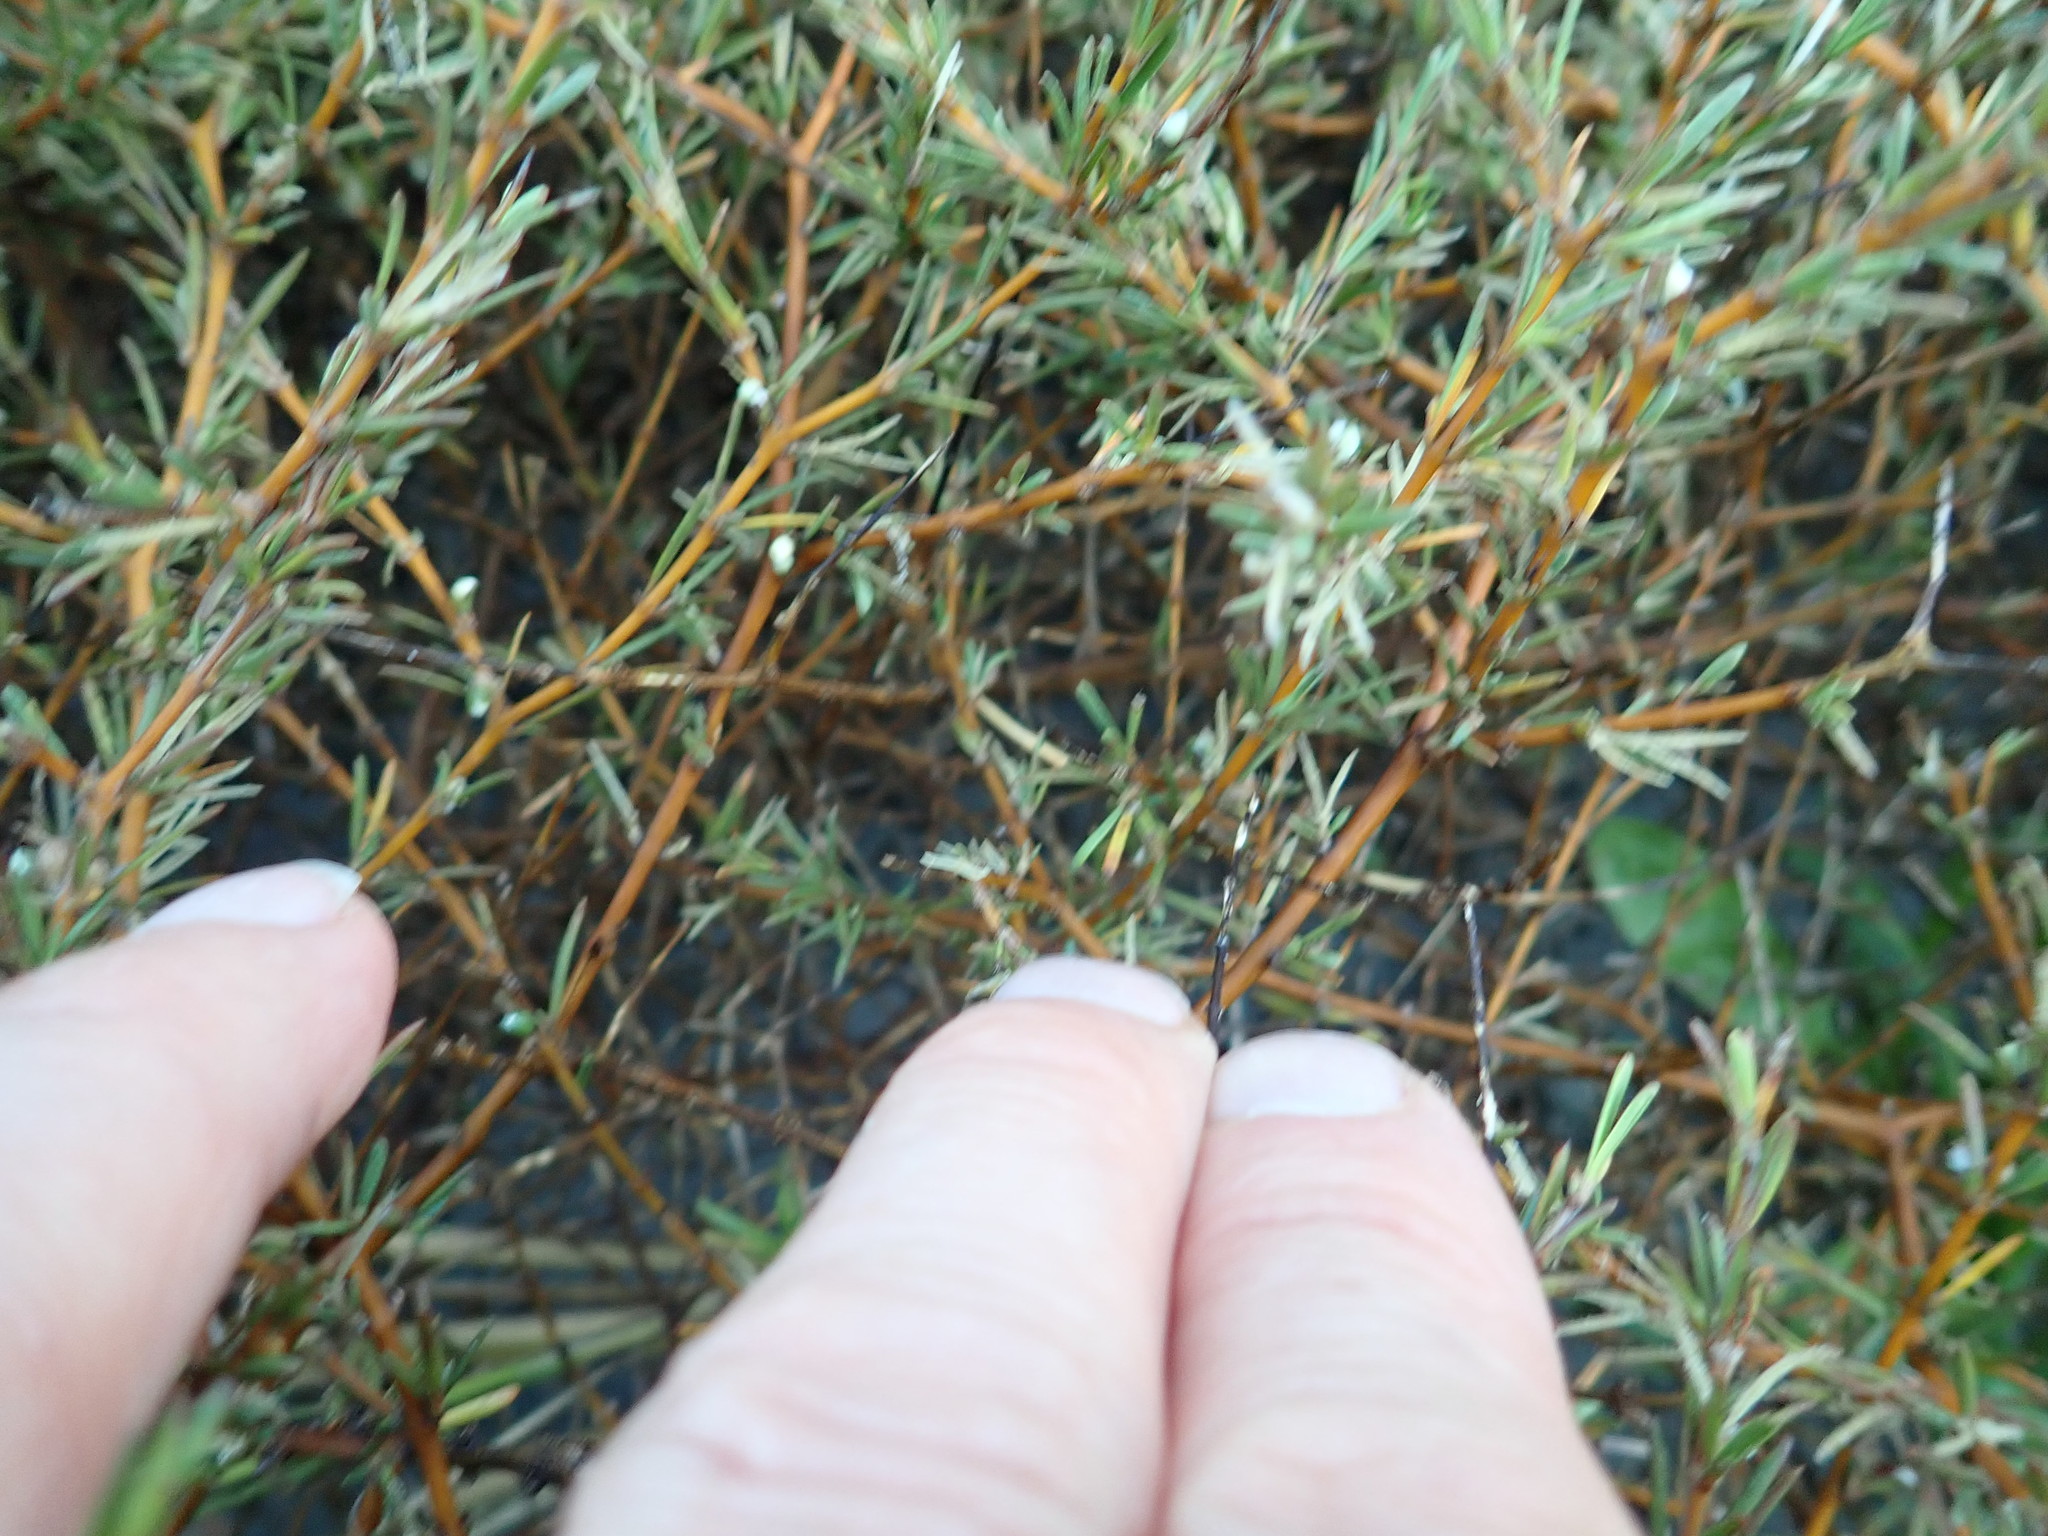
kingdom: Plantae
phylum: Tracheophyta
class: Magnoliopsida
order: Gentianales
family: Rubiaceae
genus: Coprosma
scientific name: Coprosma acerosa
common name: Sand coprosma
